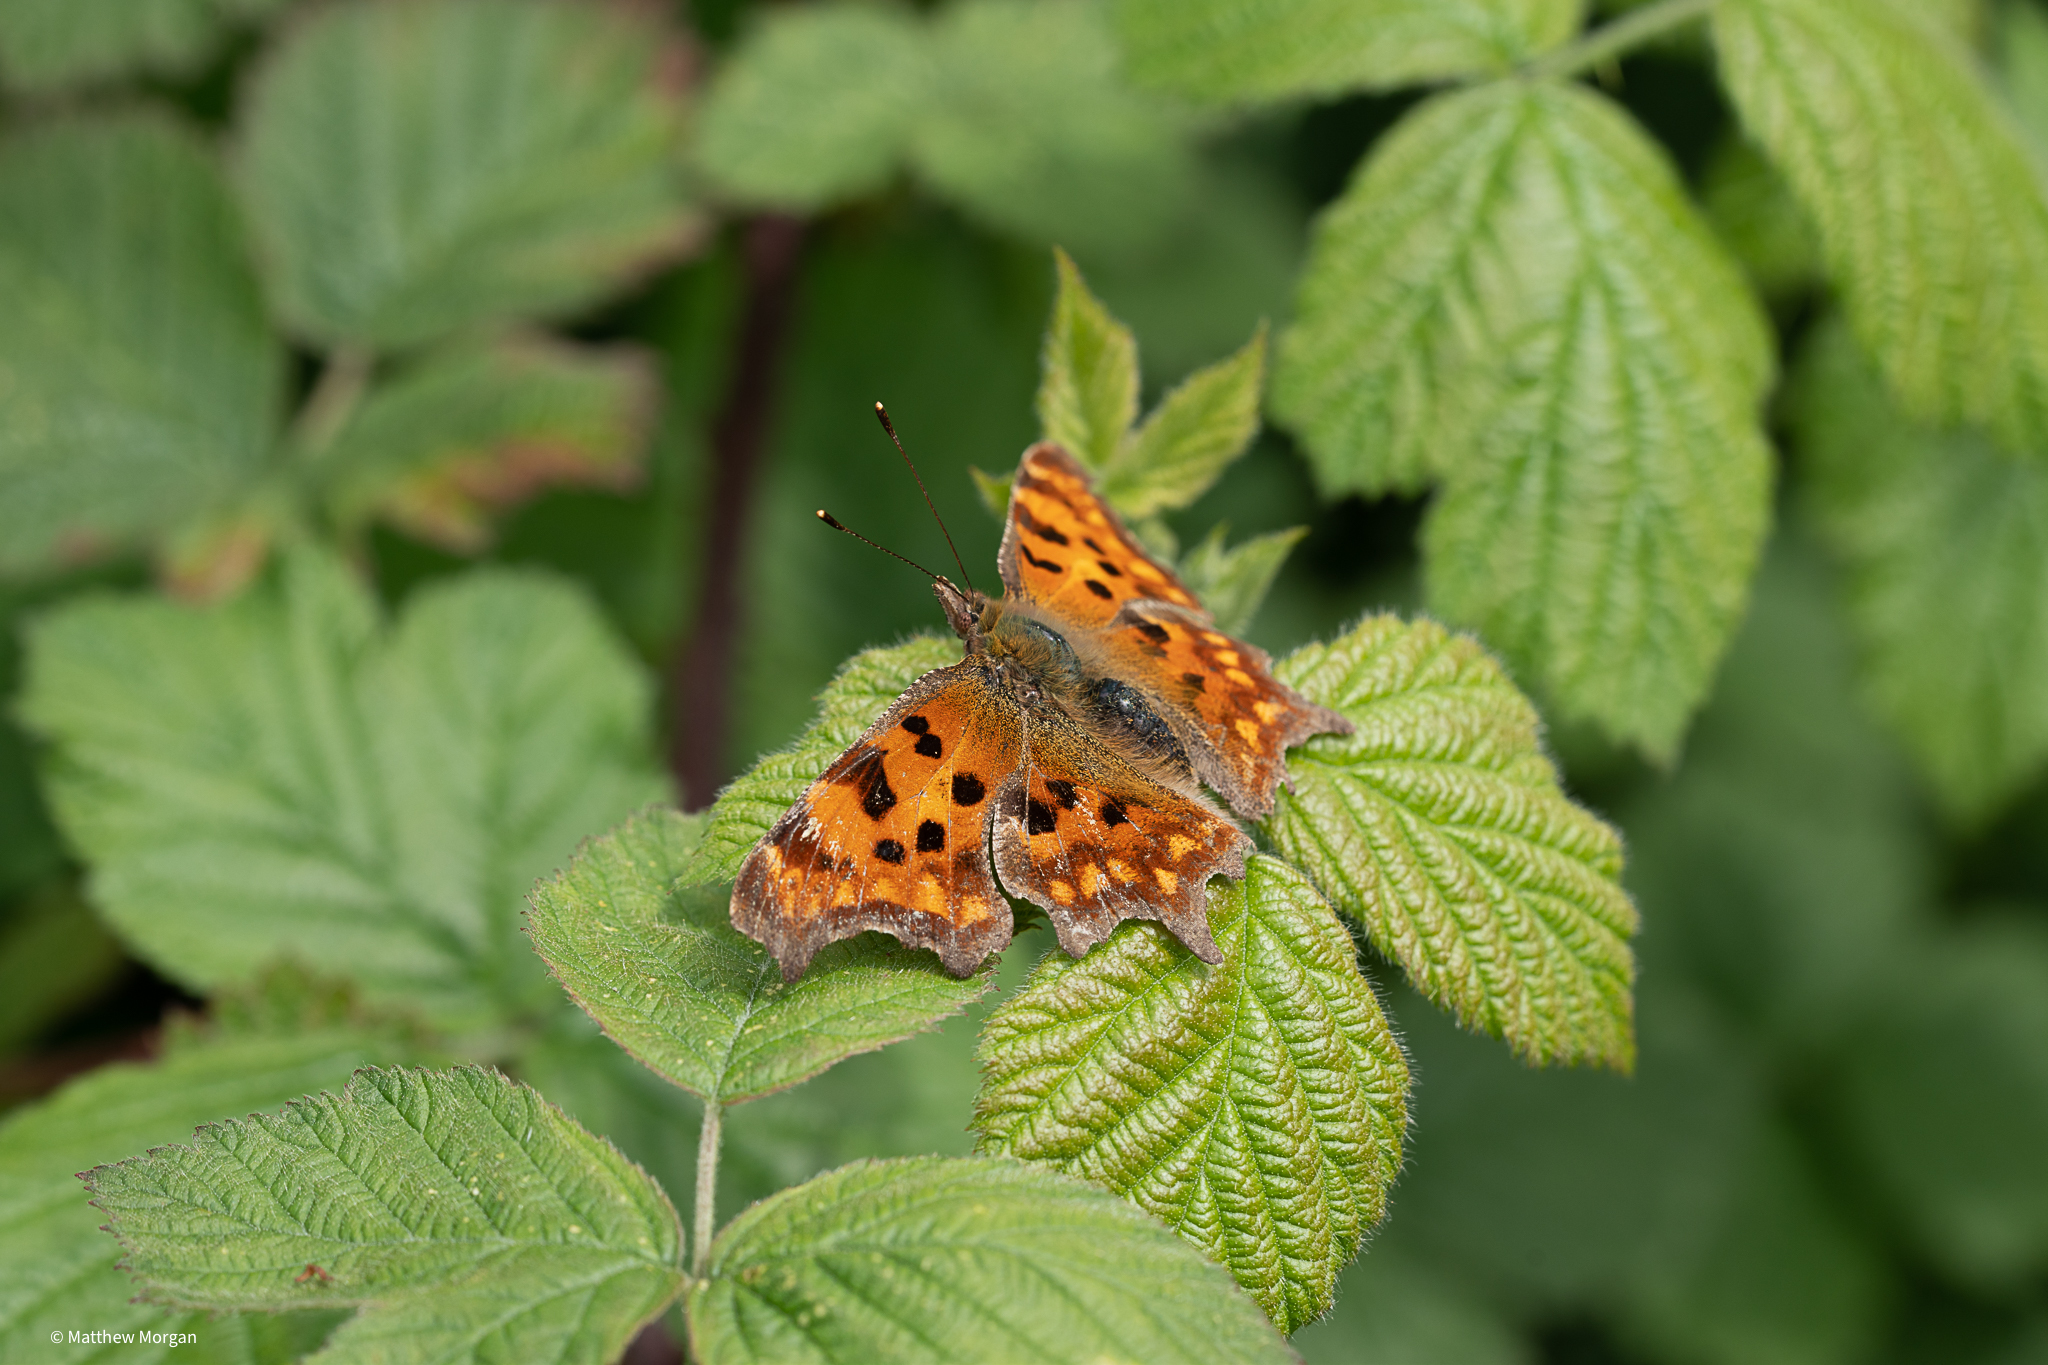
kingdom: Animalia
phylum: Arthropoda
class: Insecta
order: Lepidoptera
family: Nymphalidae
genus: Polygonia
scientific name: Polygonia c-album
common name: Comma
